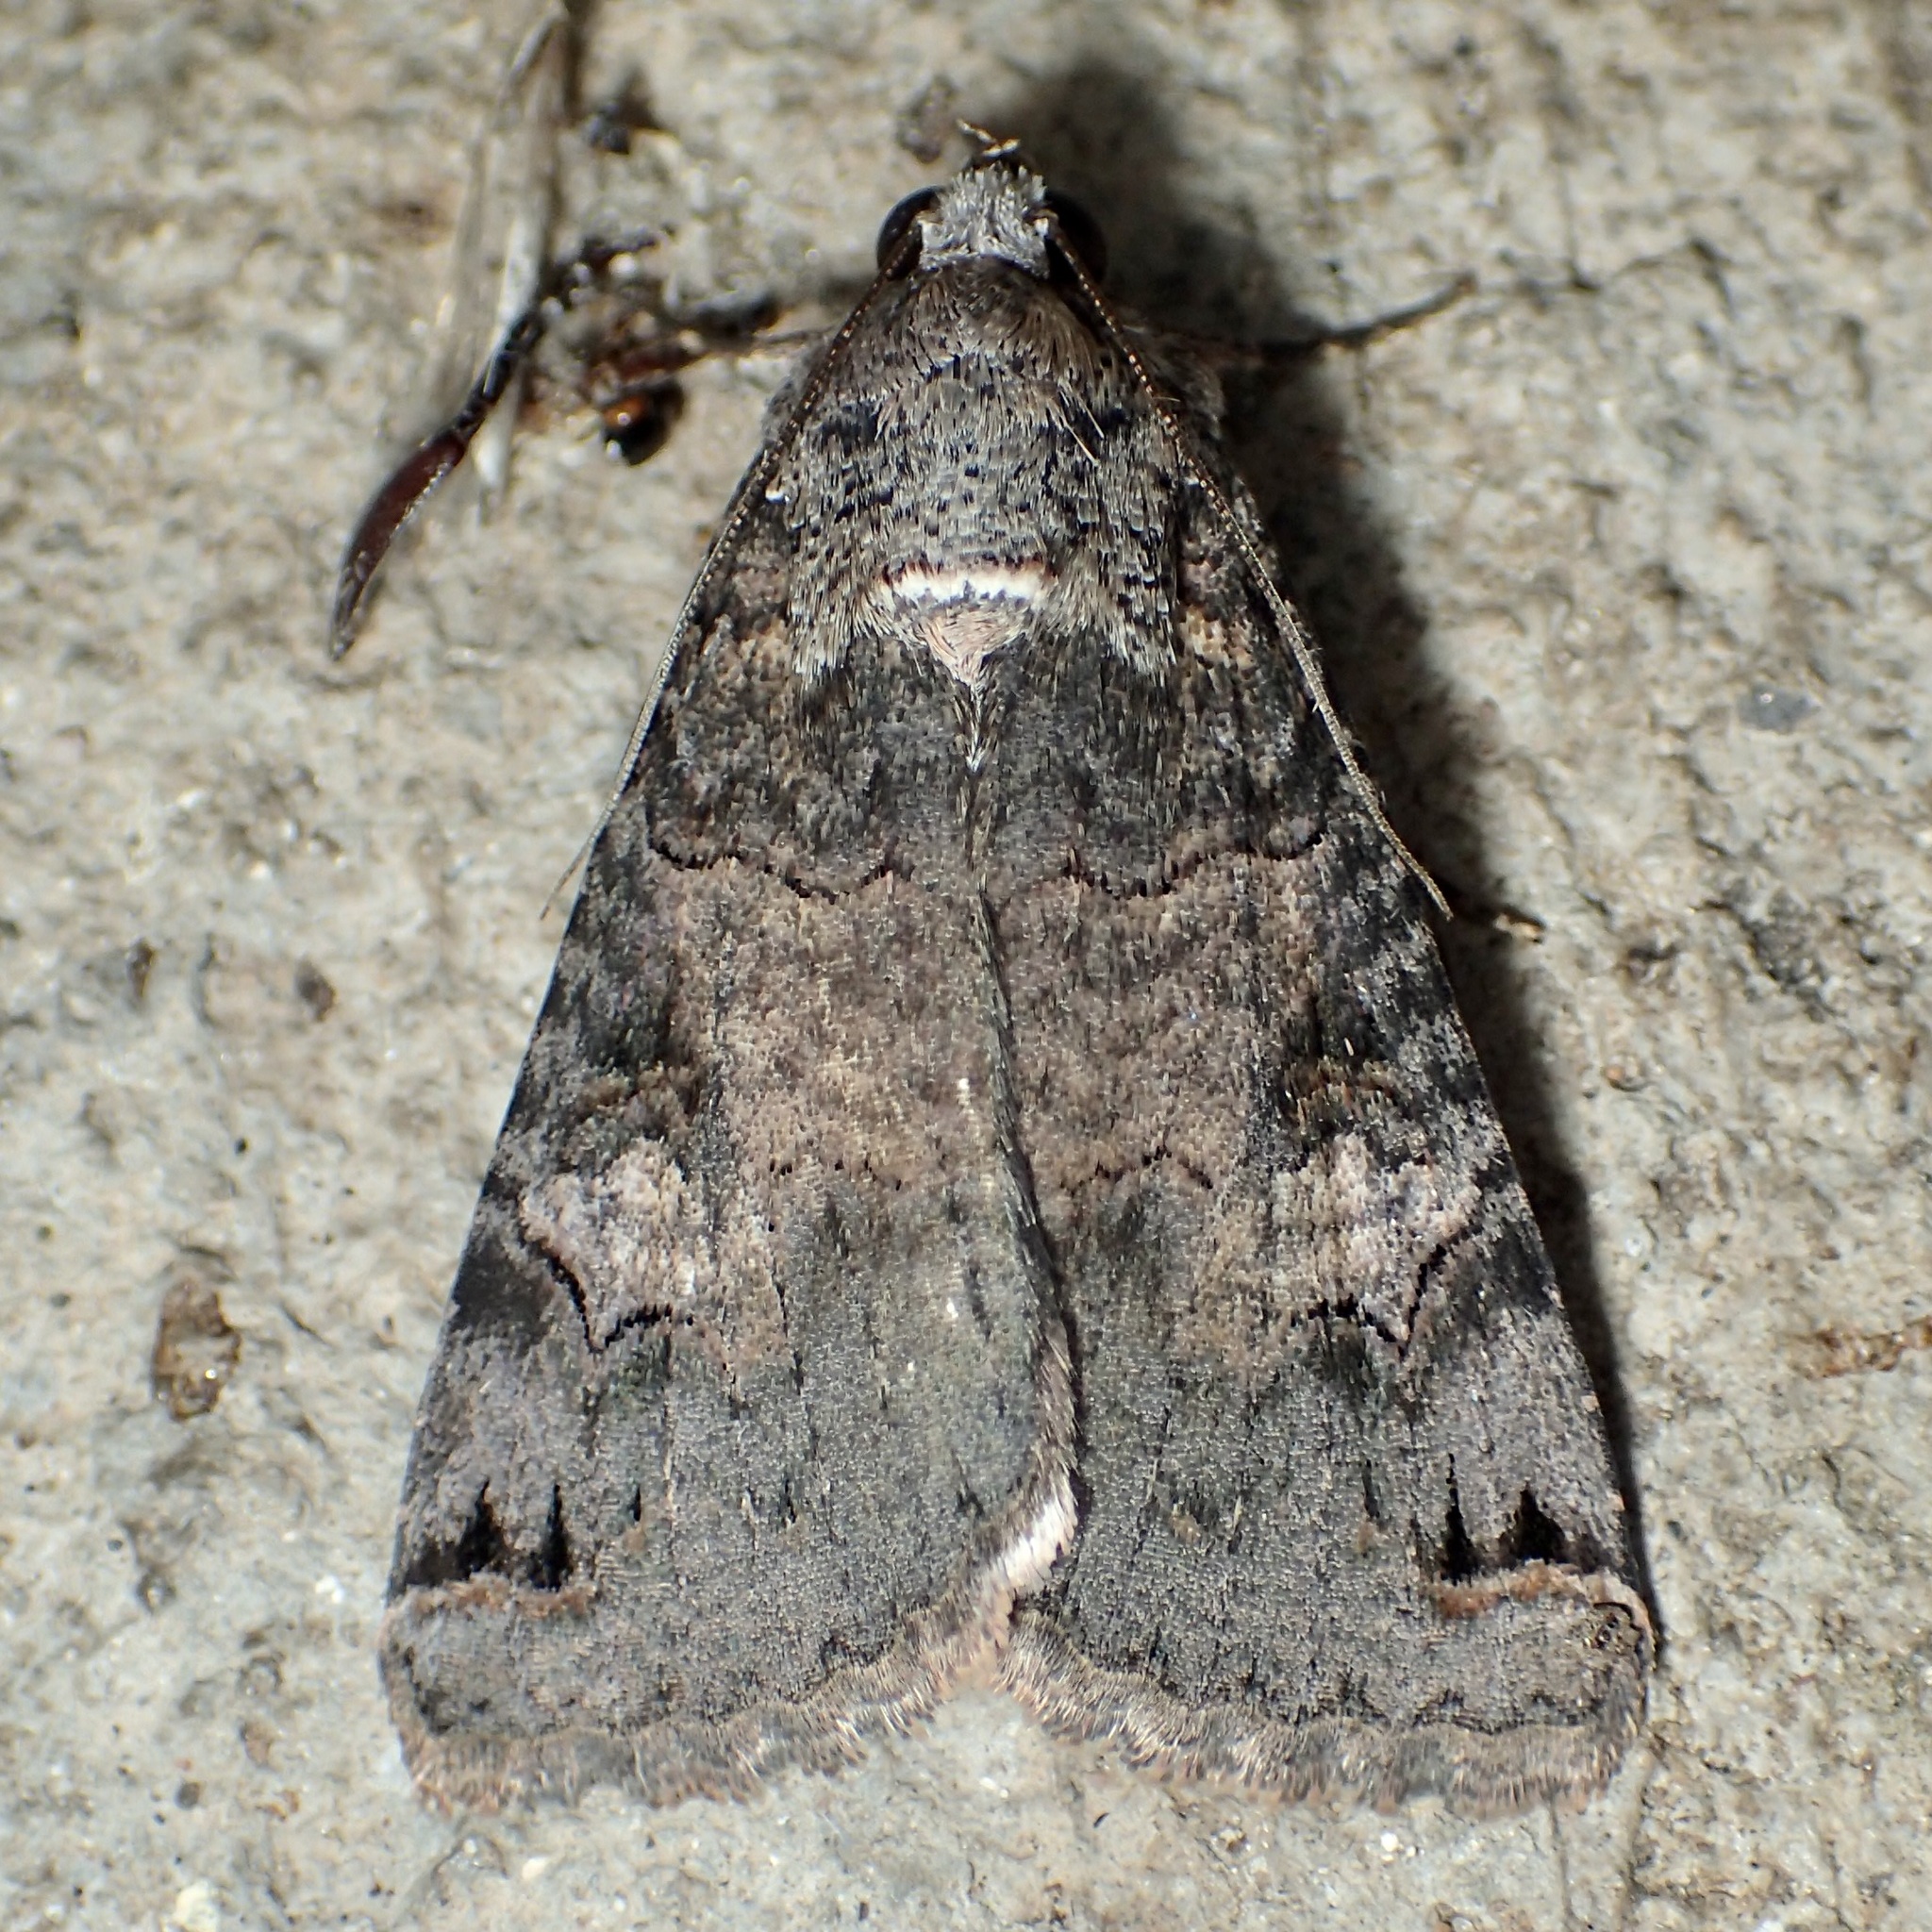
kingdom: Animalia
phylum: Arthropoda
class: Insecta
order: Lepidoptera
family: Erebidae
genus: Melipotis
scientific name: Melipotis novanda
